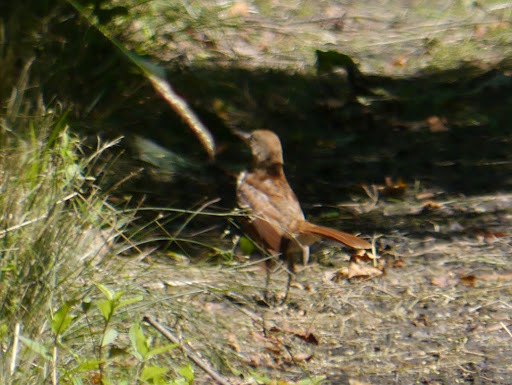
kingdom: Animalia
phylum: Chordata
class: Aves
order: Passeriformes
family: Mimidae
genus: Toxostoma
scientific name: Toxostoma rufum
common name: Brown thrasher
